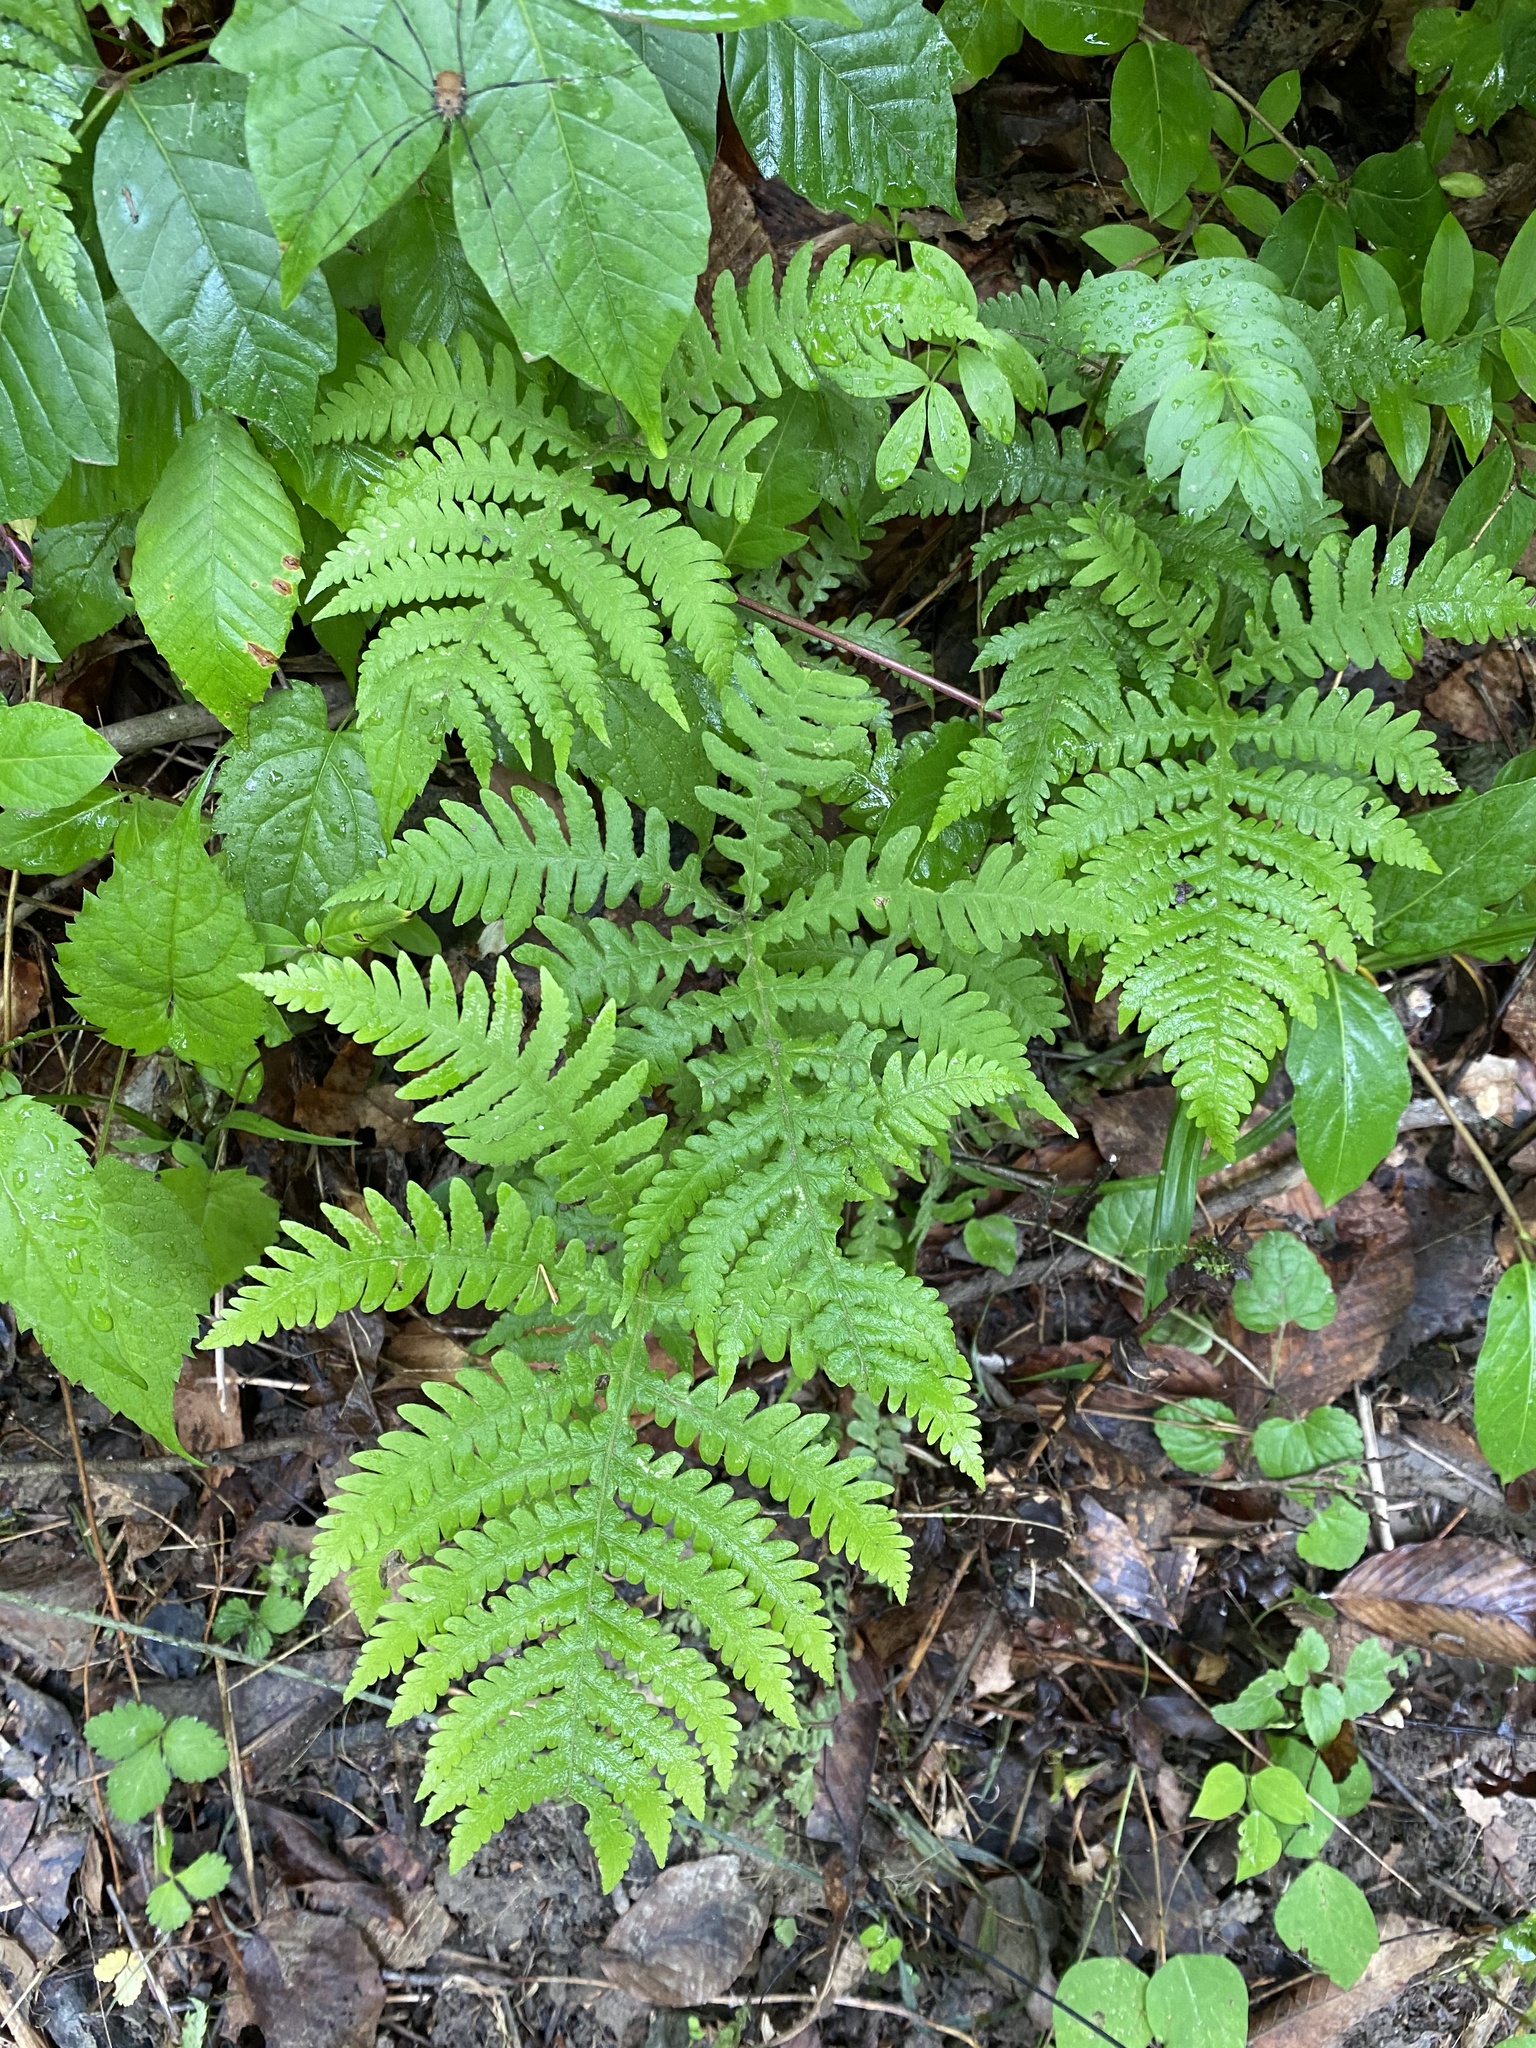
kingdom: Plantae
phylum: Tracheophyta
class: Polypodiopsida
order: Polypodiales
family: Thelypteridaceae
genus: Phegopteris
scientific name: Phegopteris hexagonoptera
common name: Broad beech fern
